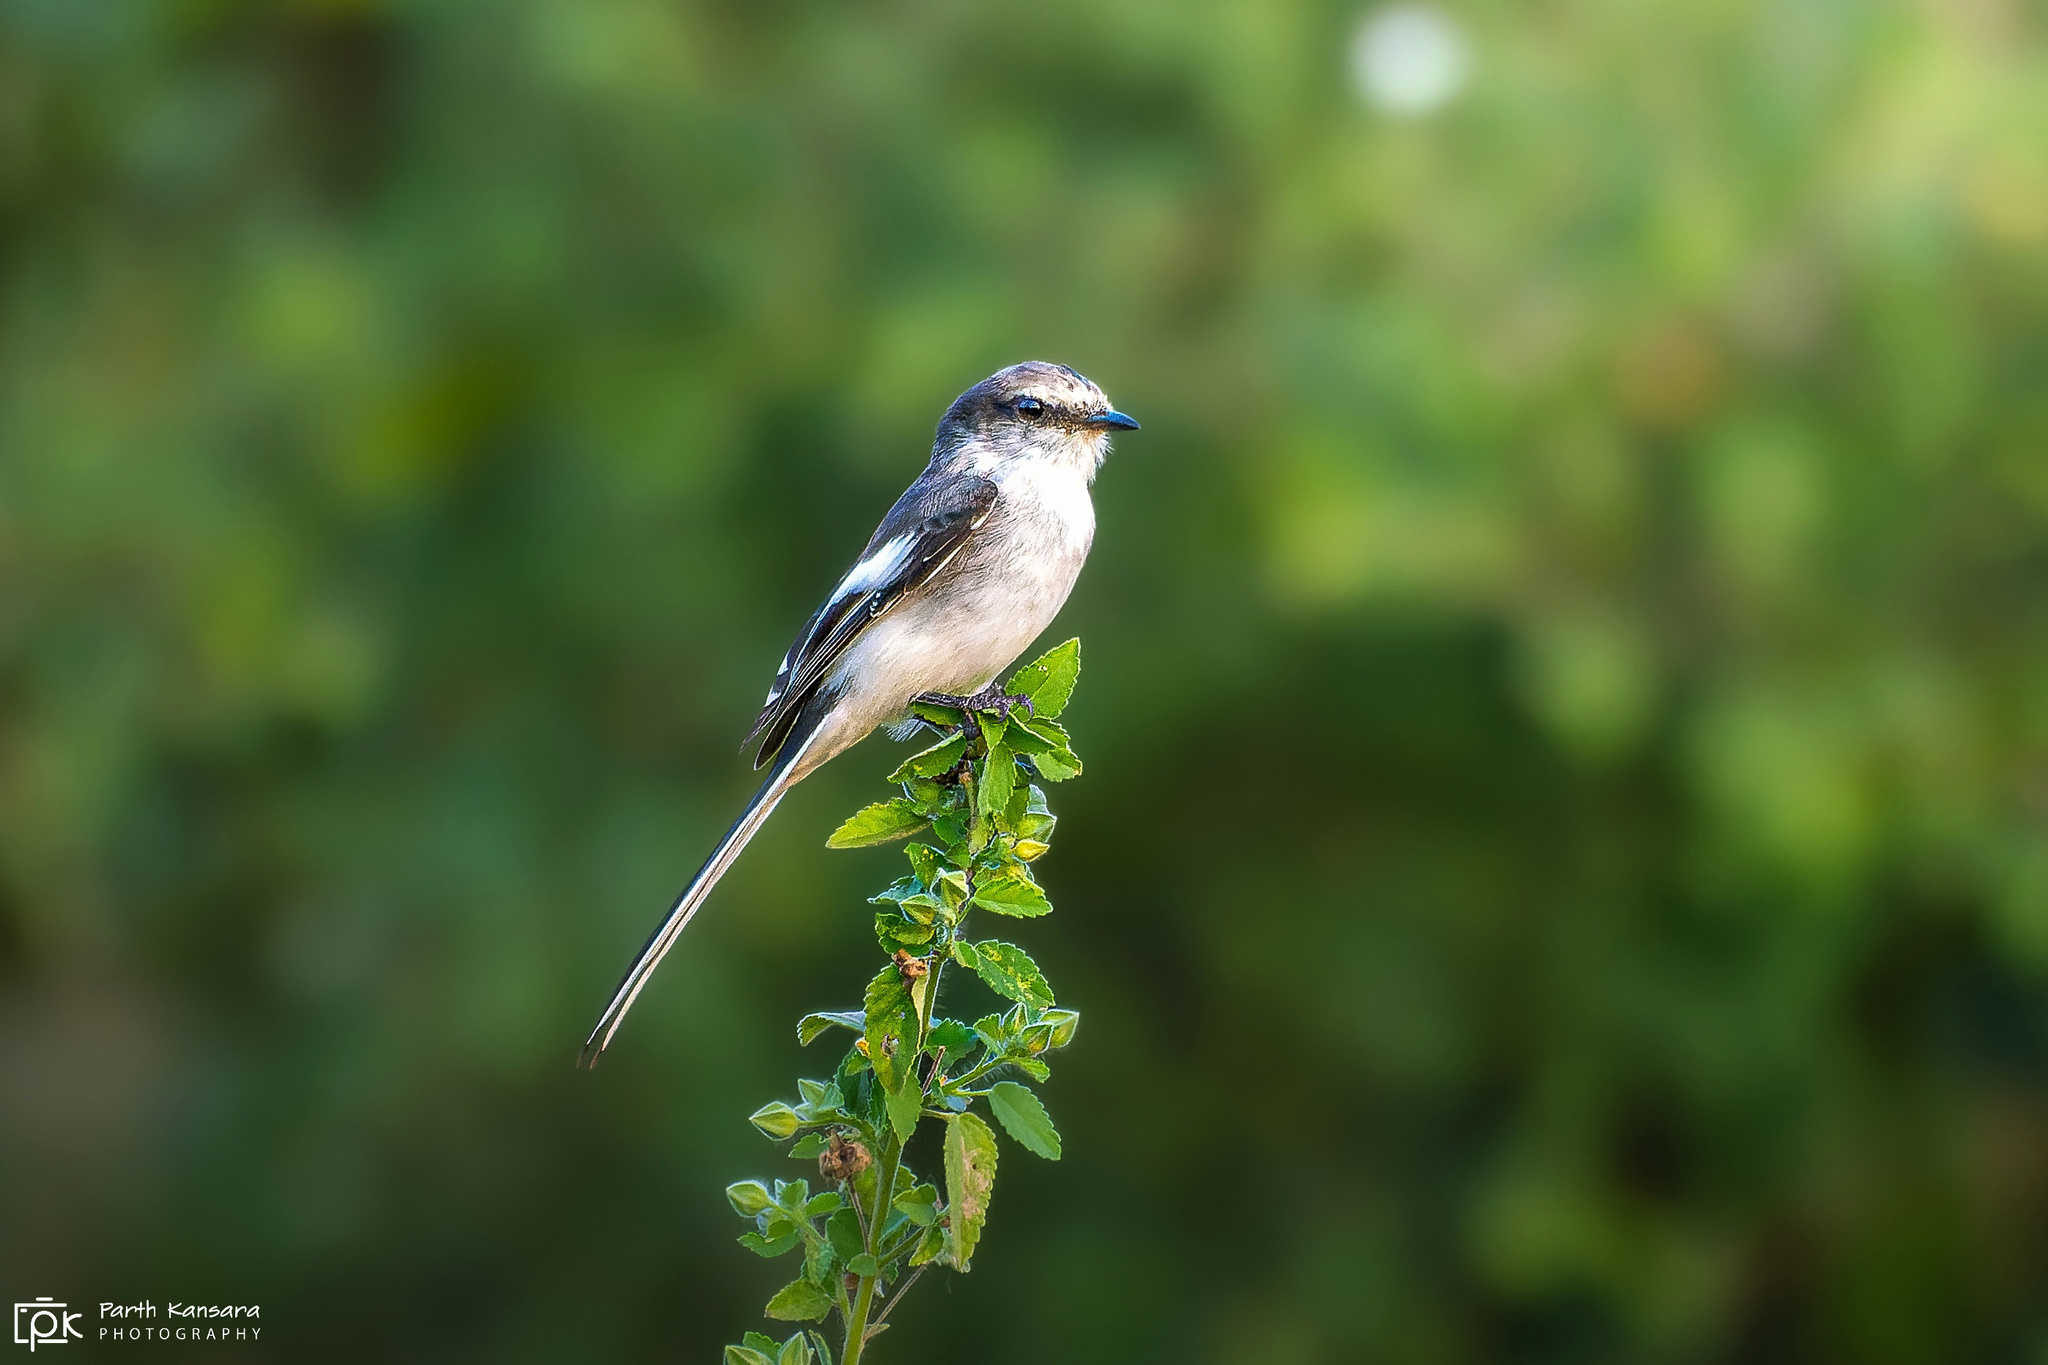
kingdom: Animalia
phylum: Chordata
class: Aves
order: Passeriformes
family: Campephagidae
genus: Pericrocotus
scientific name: Pericrocotus erythropygius
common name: White-bellied minivet
